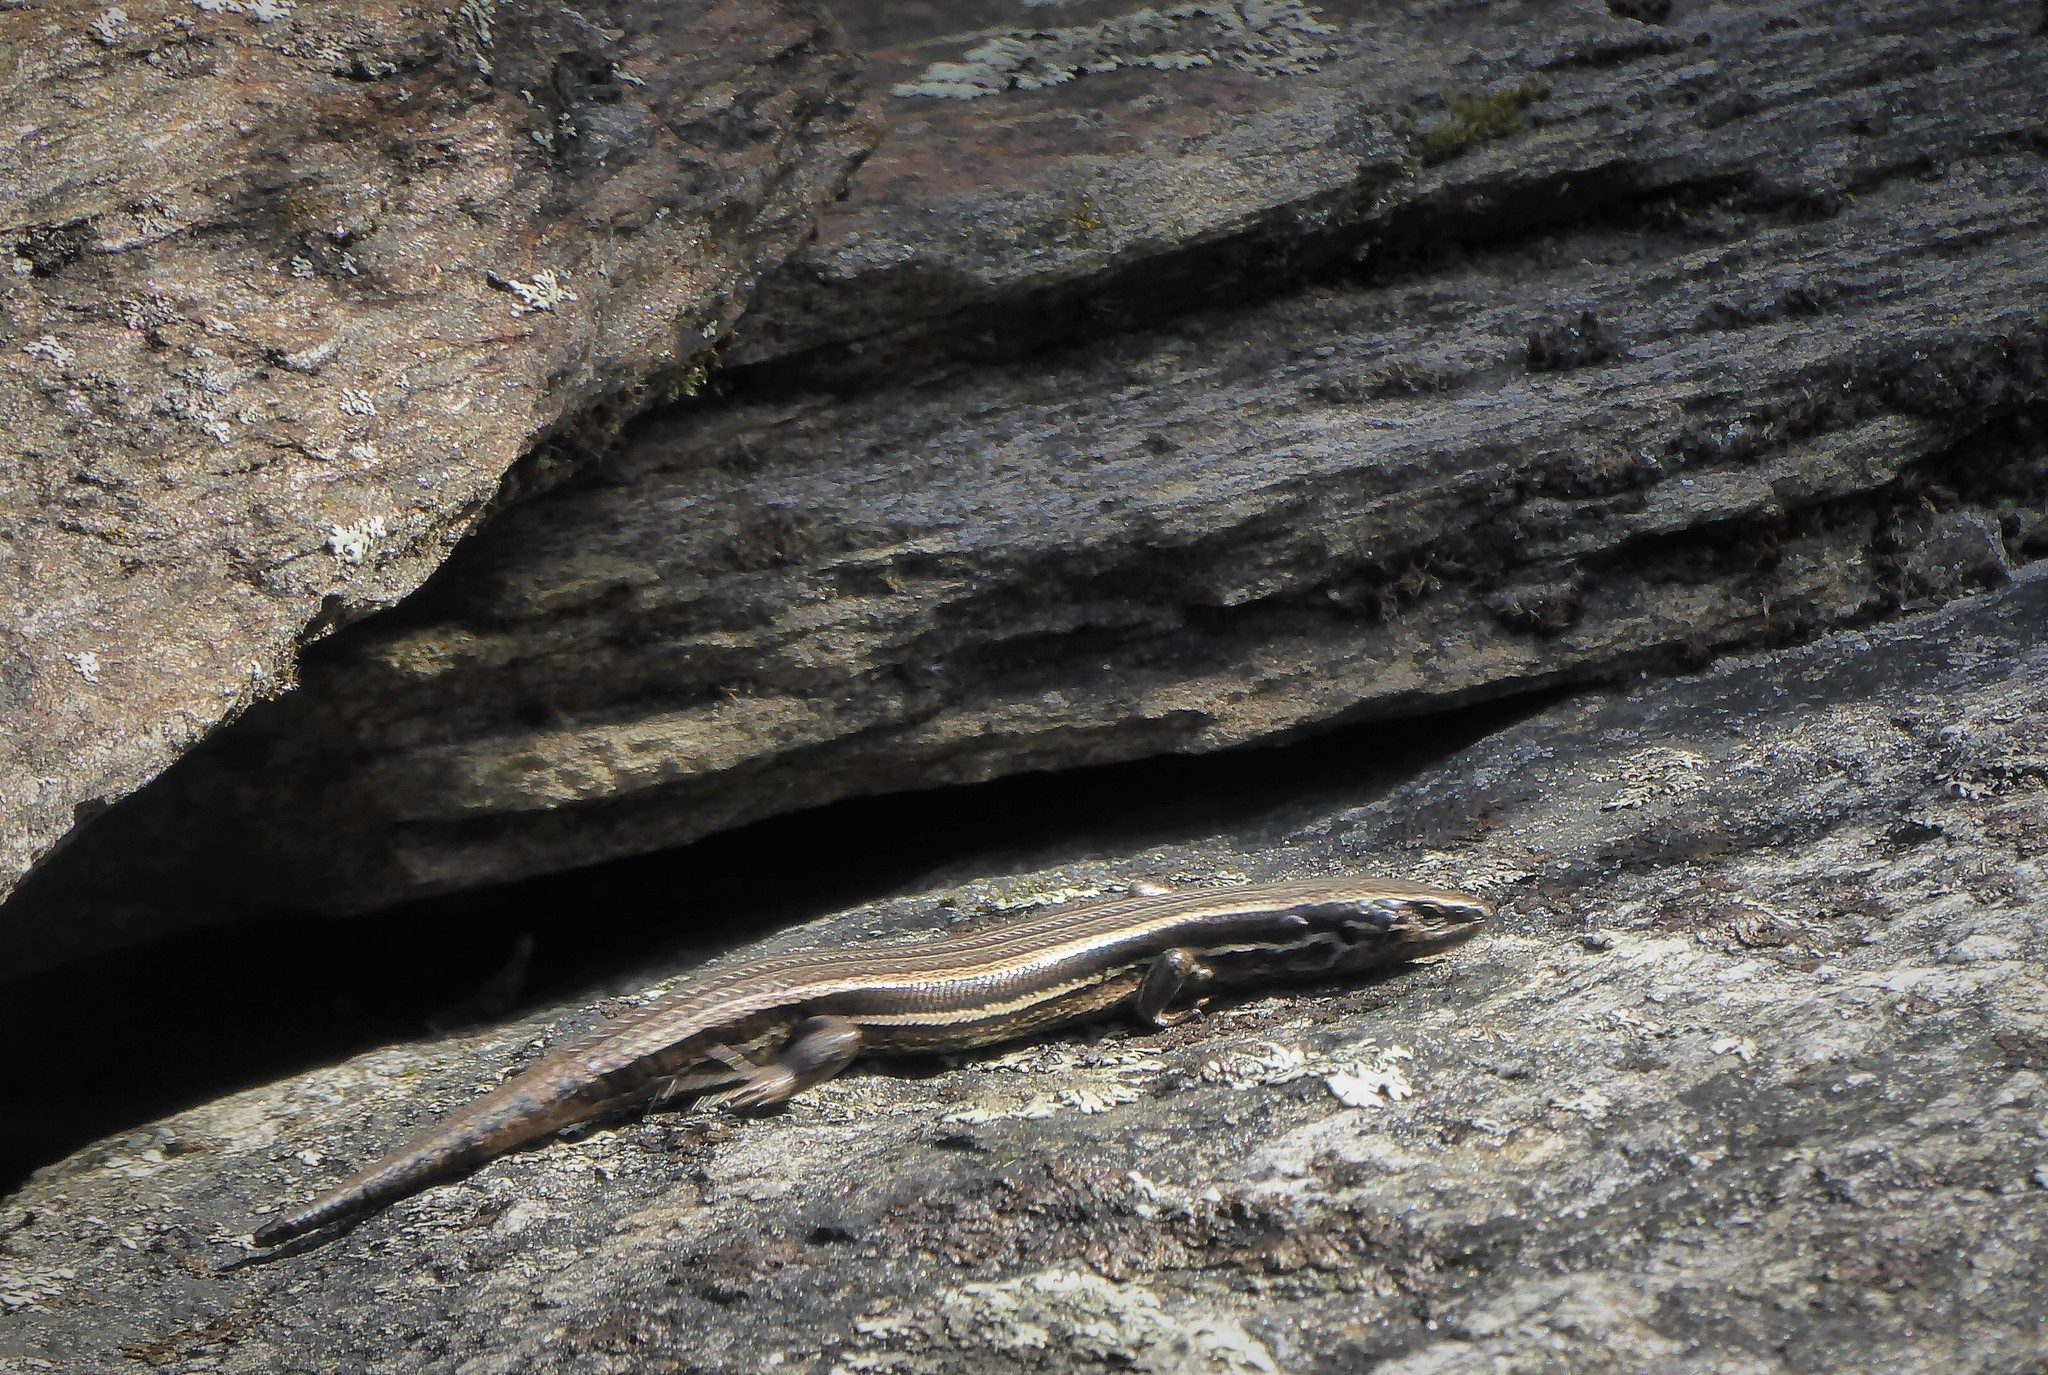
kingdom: Animalia
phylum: Chordata
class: Squamata
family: Scincidae
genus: Oligosoma
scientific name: Oligosoma polychroma
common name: Common new zealand skink
